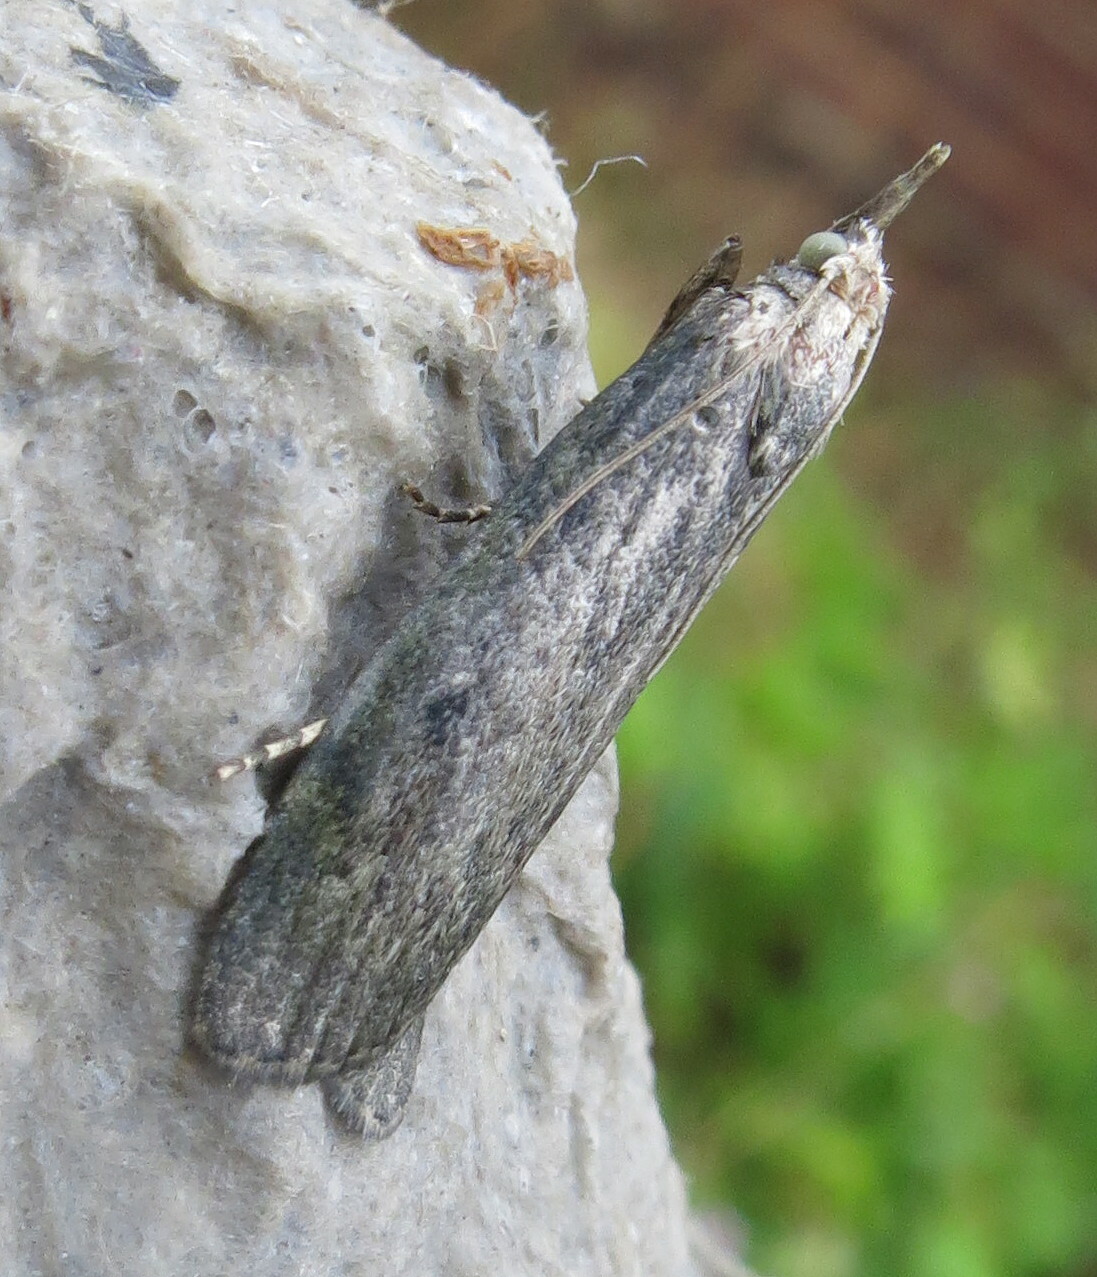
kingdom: Animalia
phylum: Arthropoda
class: Insecta
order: Lepidoptera
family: Pyralidae
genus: Aphomia
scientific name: Aphomia sociella
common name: Bee moth
